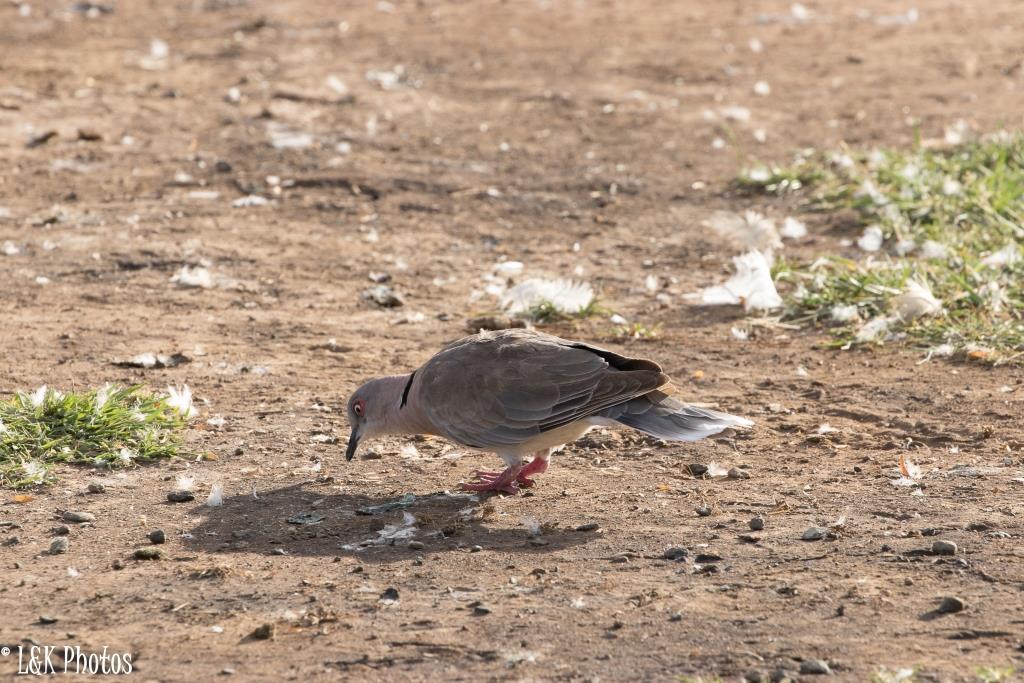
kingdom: Animalia
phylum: Chordata
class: Aves
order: Columbiformes
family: Columbidae
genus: Streptopelia
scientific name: Streptopelia decipiens
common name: Mourning collared dove
